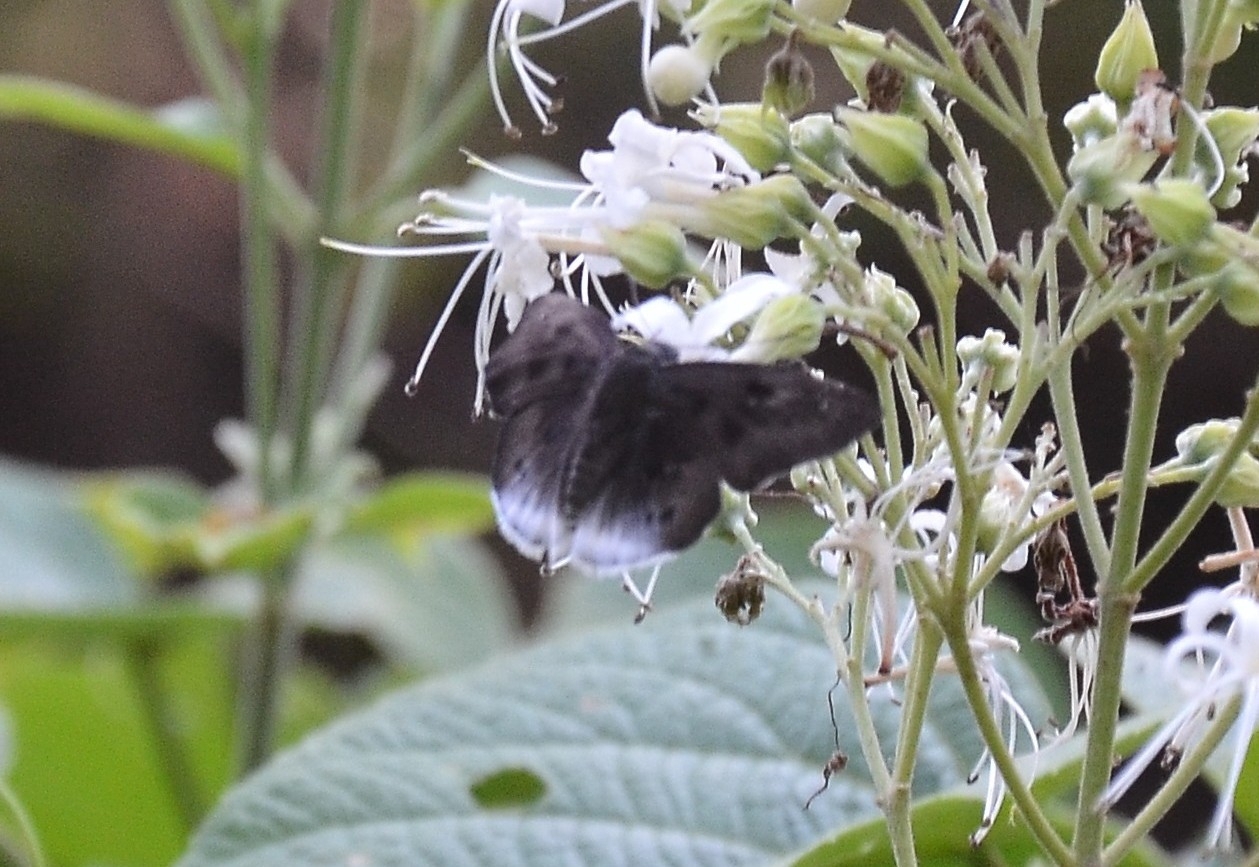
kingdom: Animalia
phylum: Arthropoda
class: Insecta
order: Lepidoptera
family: Hesperiidae
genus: Tagiades
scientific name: Tagiades gana
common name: Suffused snow flat
